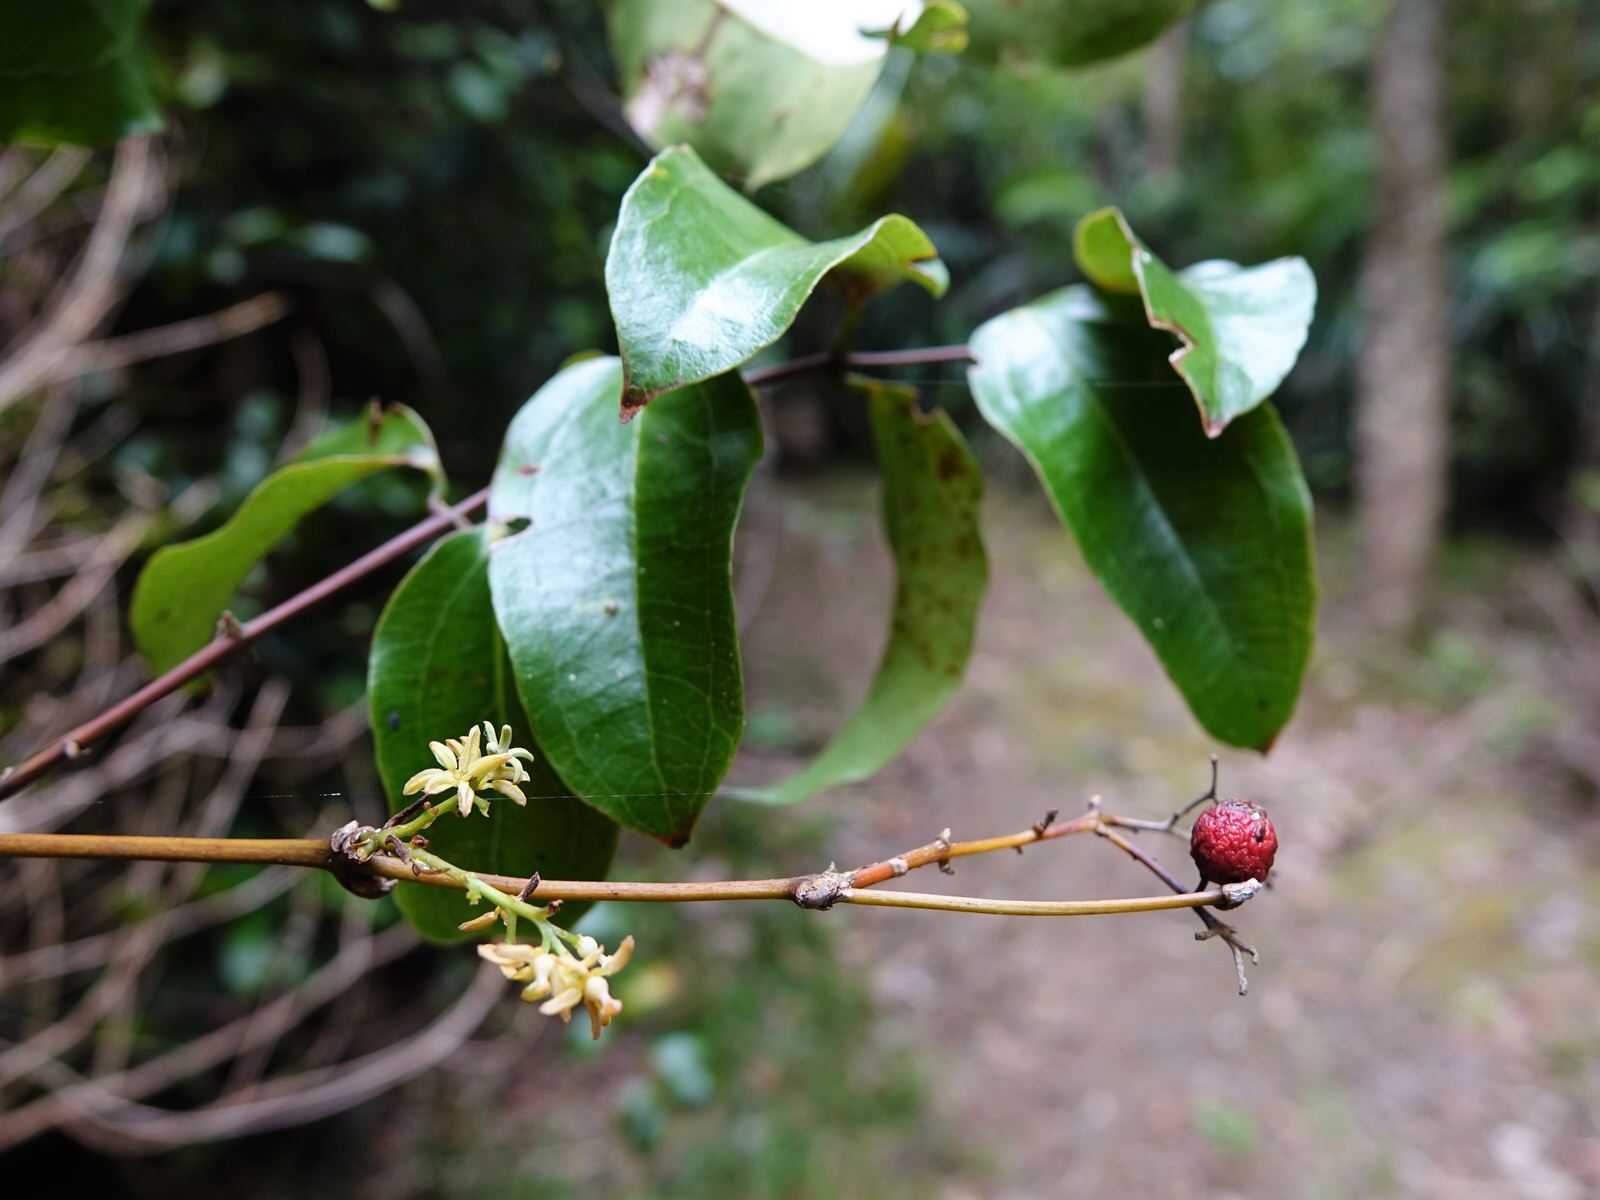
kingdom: Plantae
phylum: Tracheophyta
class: Liliopsida
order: Liliales
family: Ripogonaceae
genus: Ripogonum
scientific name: Ripogonum scandens
